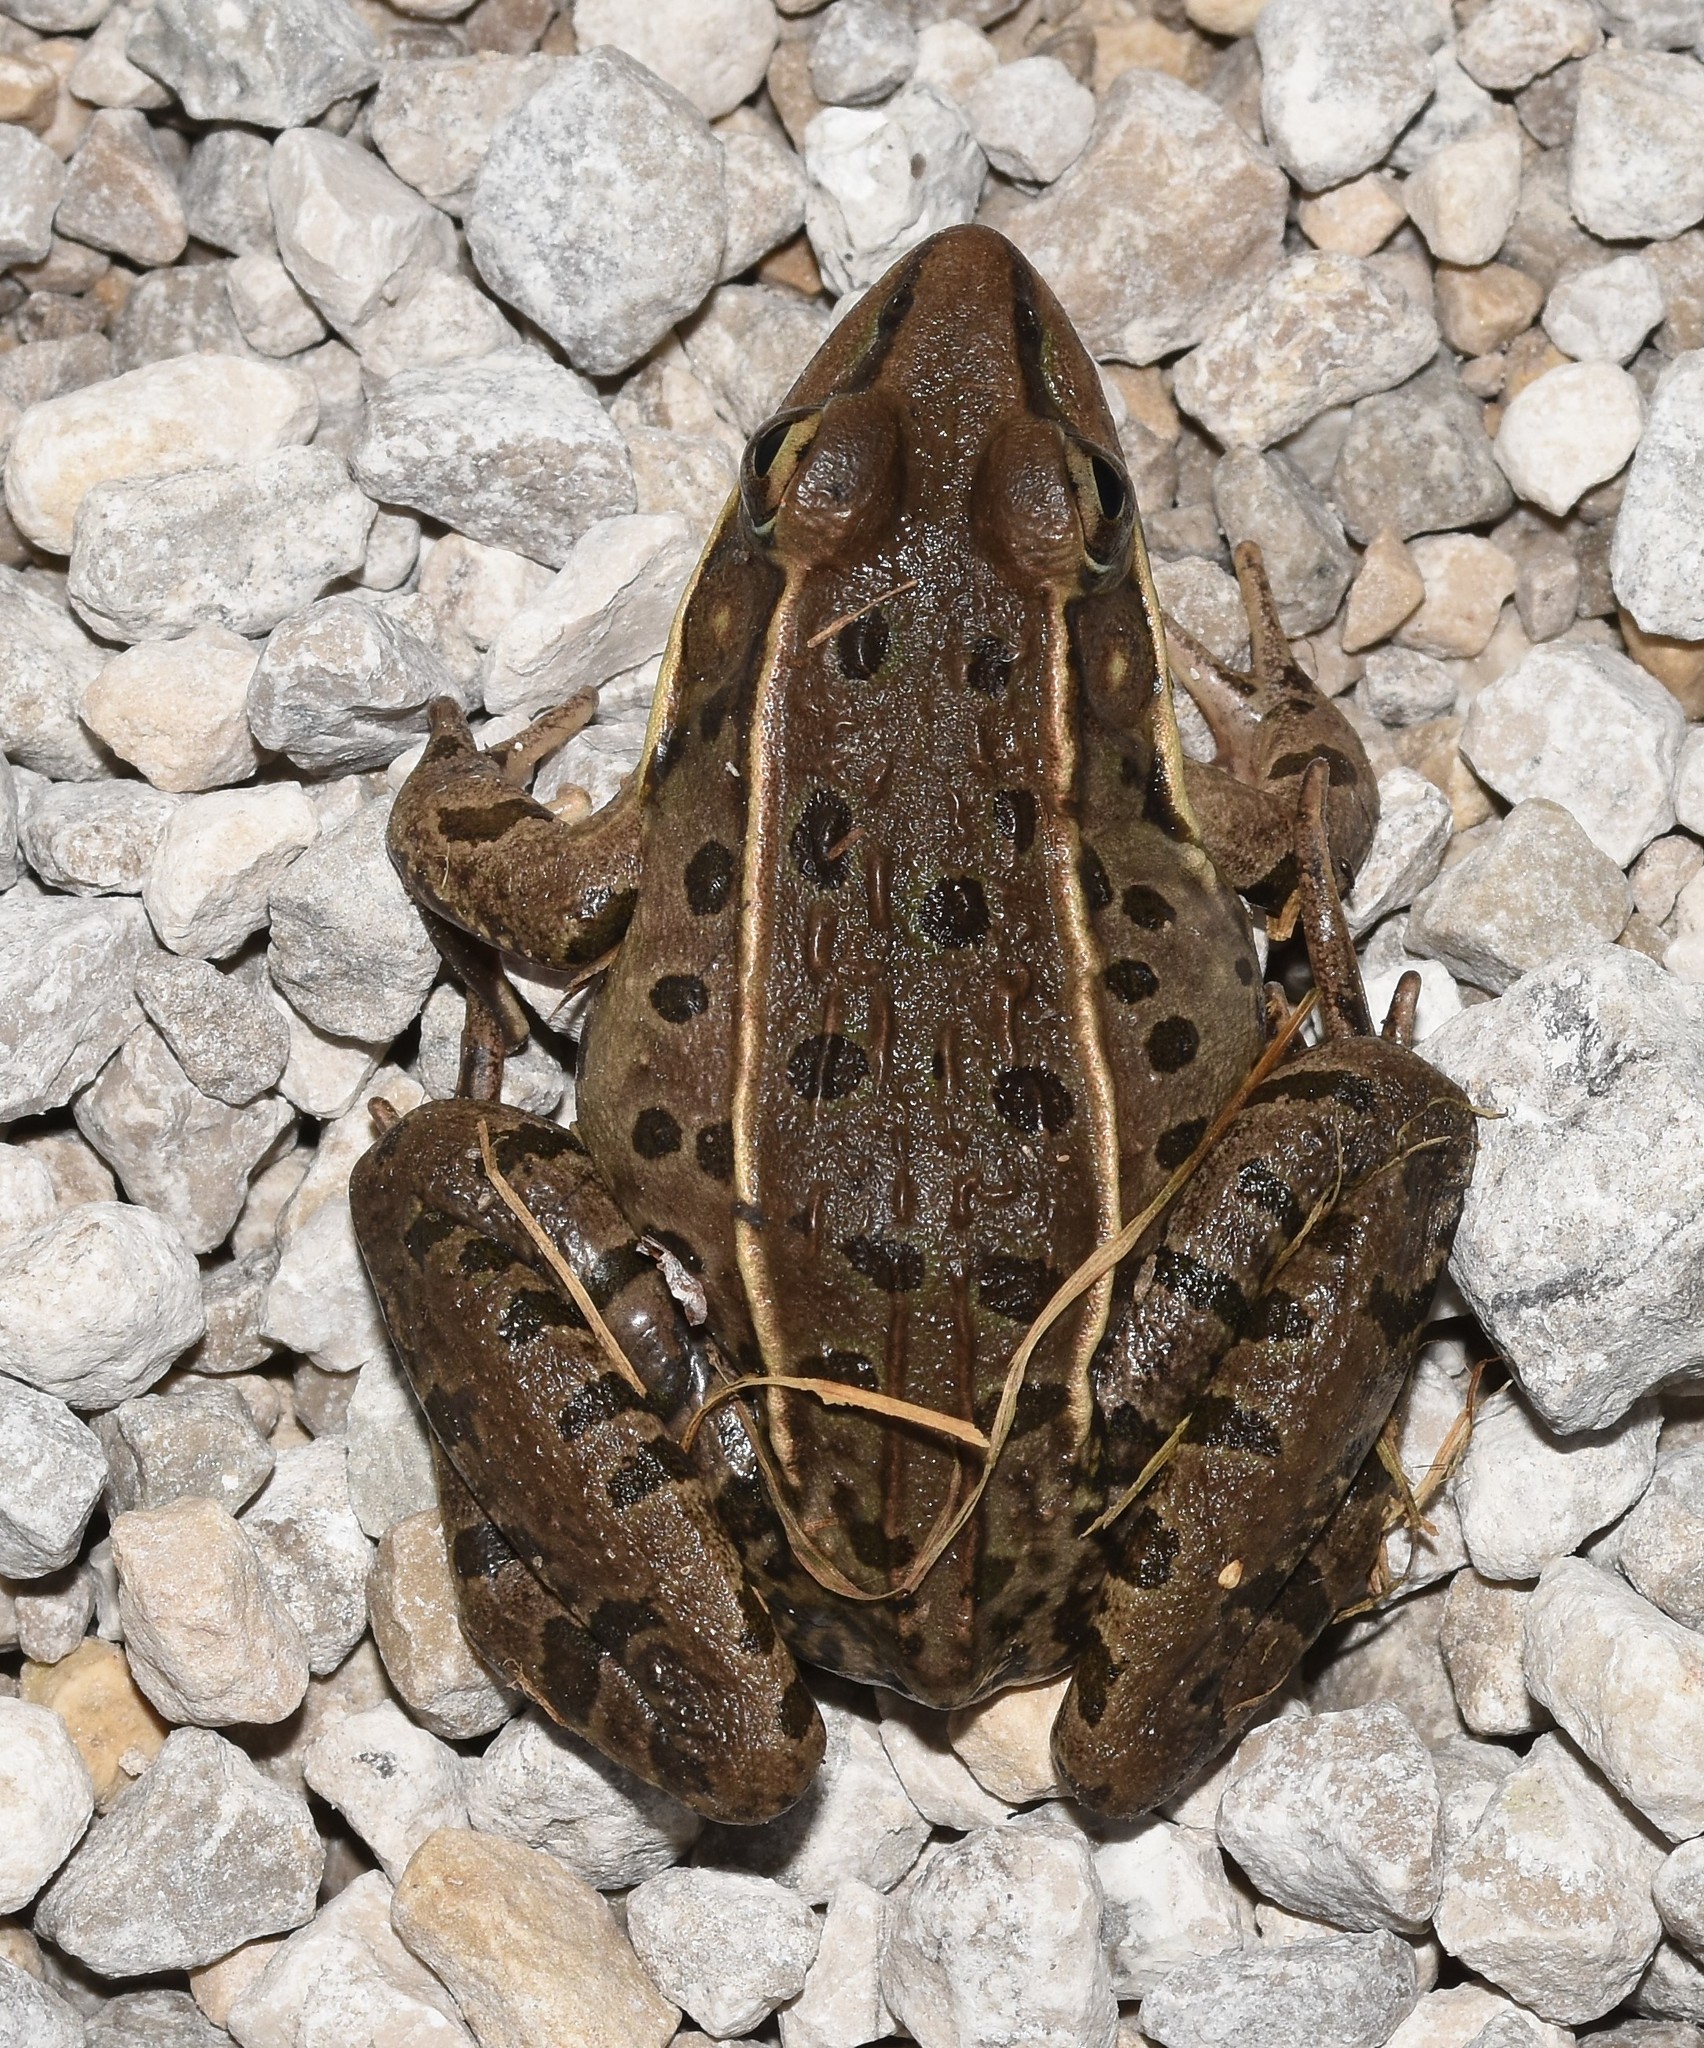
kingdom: Animalia
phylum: Chordata
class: Amphibia
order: Anura
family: Ranidae
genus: Lithobates
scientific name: Lithobates sphenocephalus
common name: Southern leopard frog
